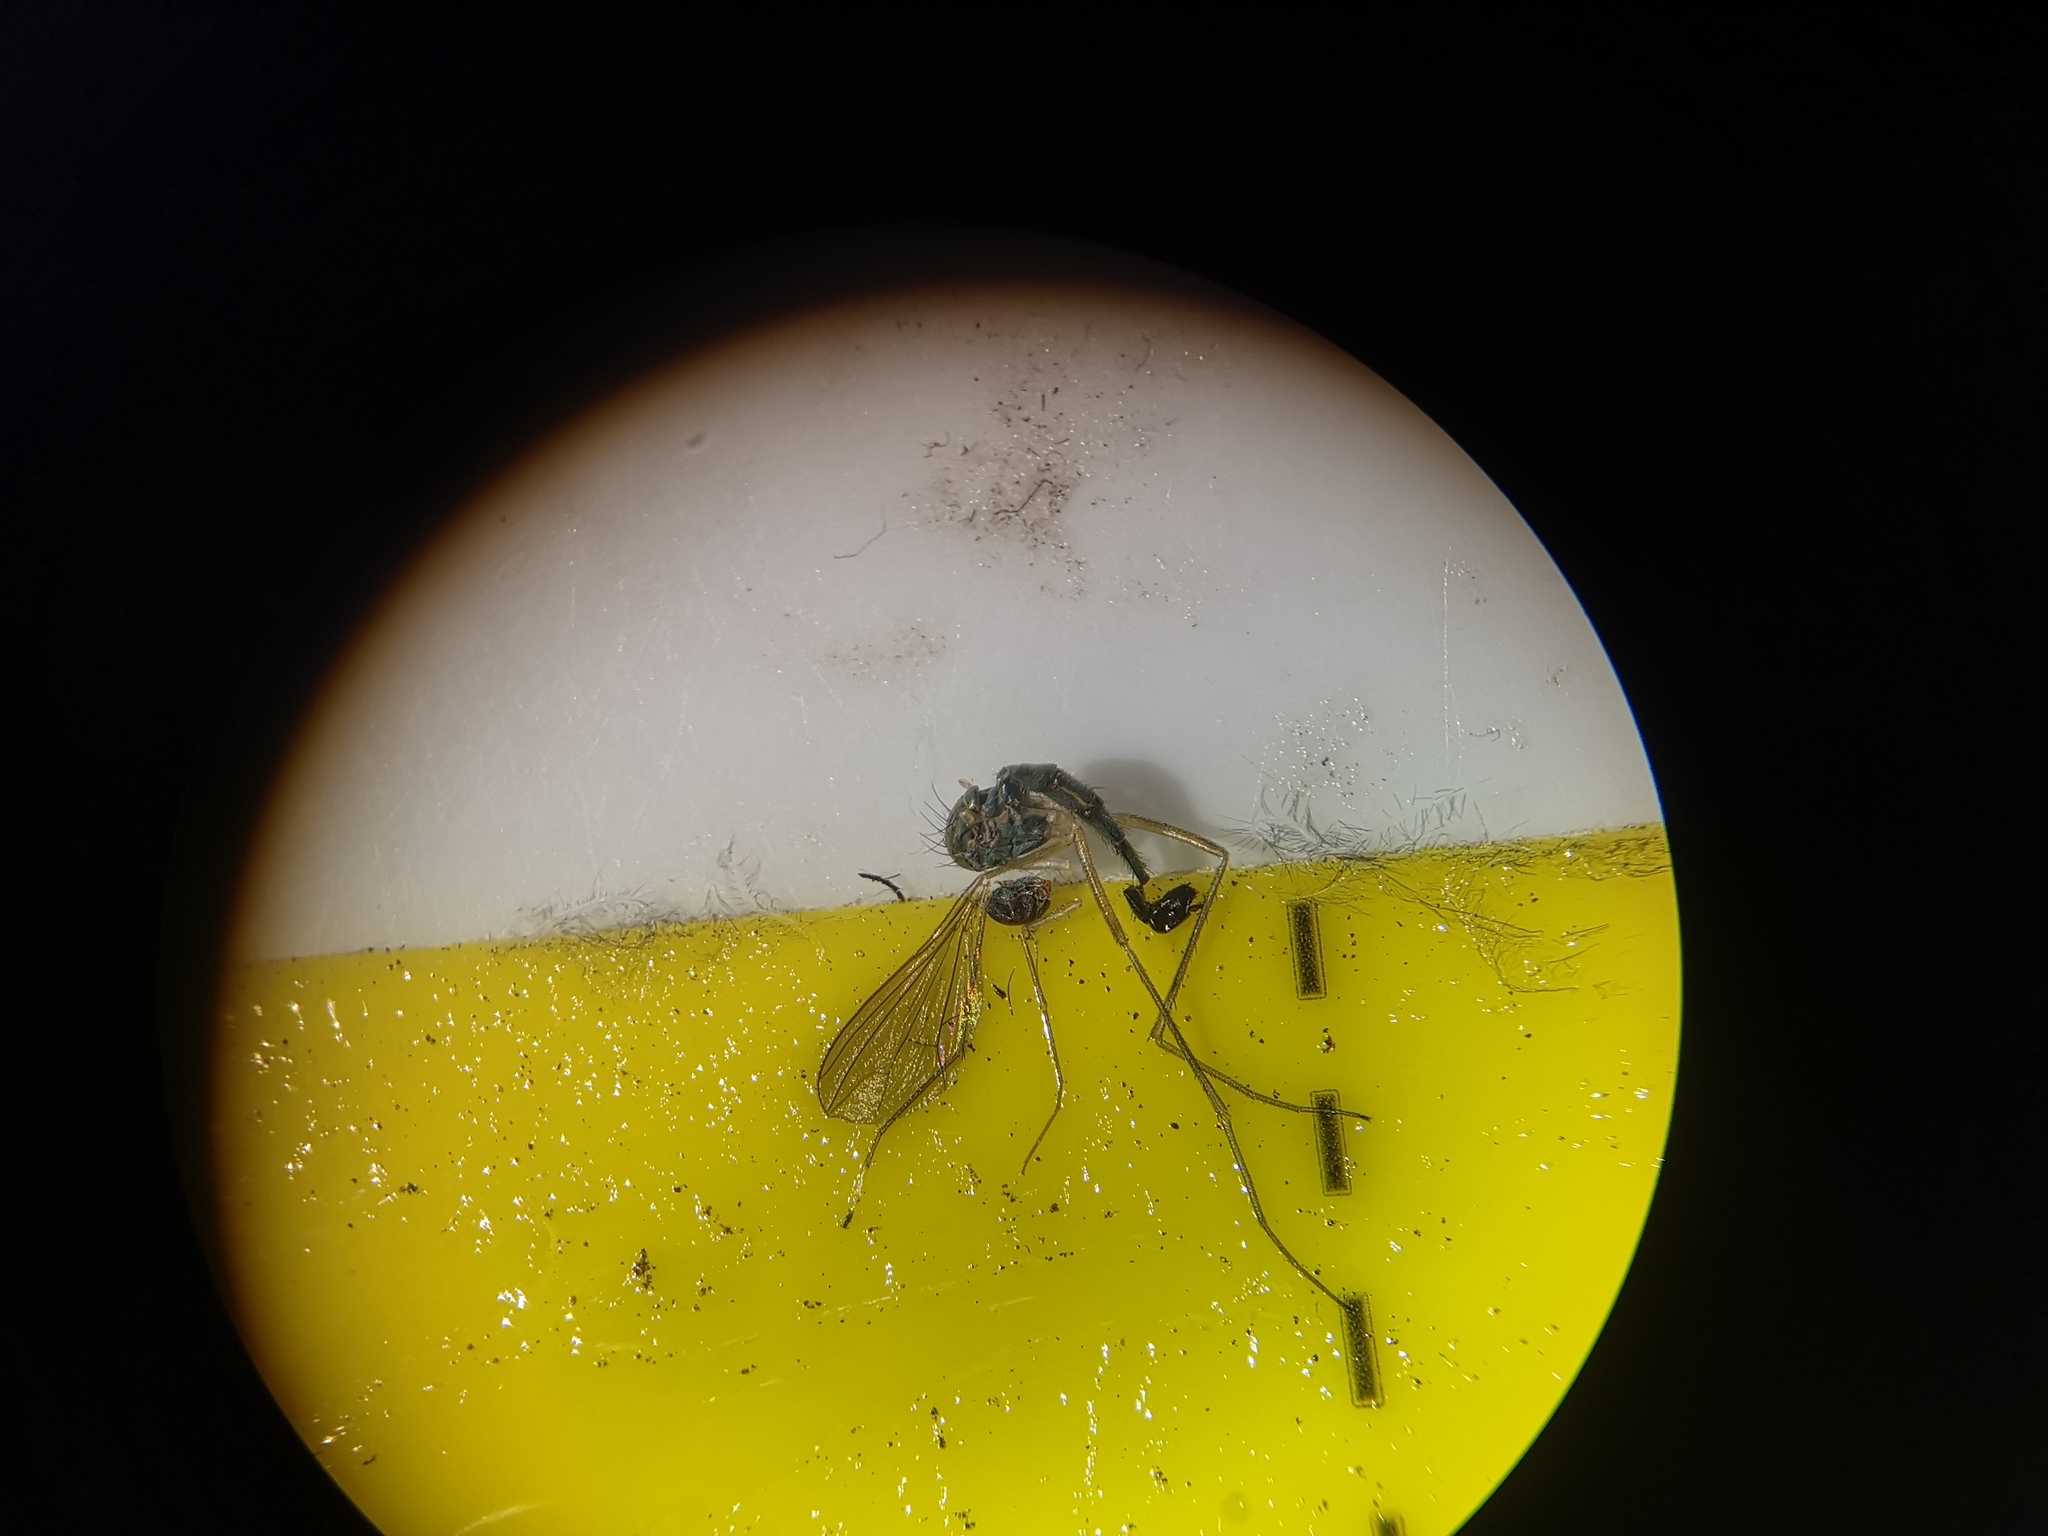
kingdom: Animalia
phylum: Arthropoda
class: Insecta
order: Diptera
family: Dolichopodidae
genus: Sciapus
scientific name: Sciapus platypterus
